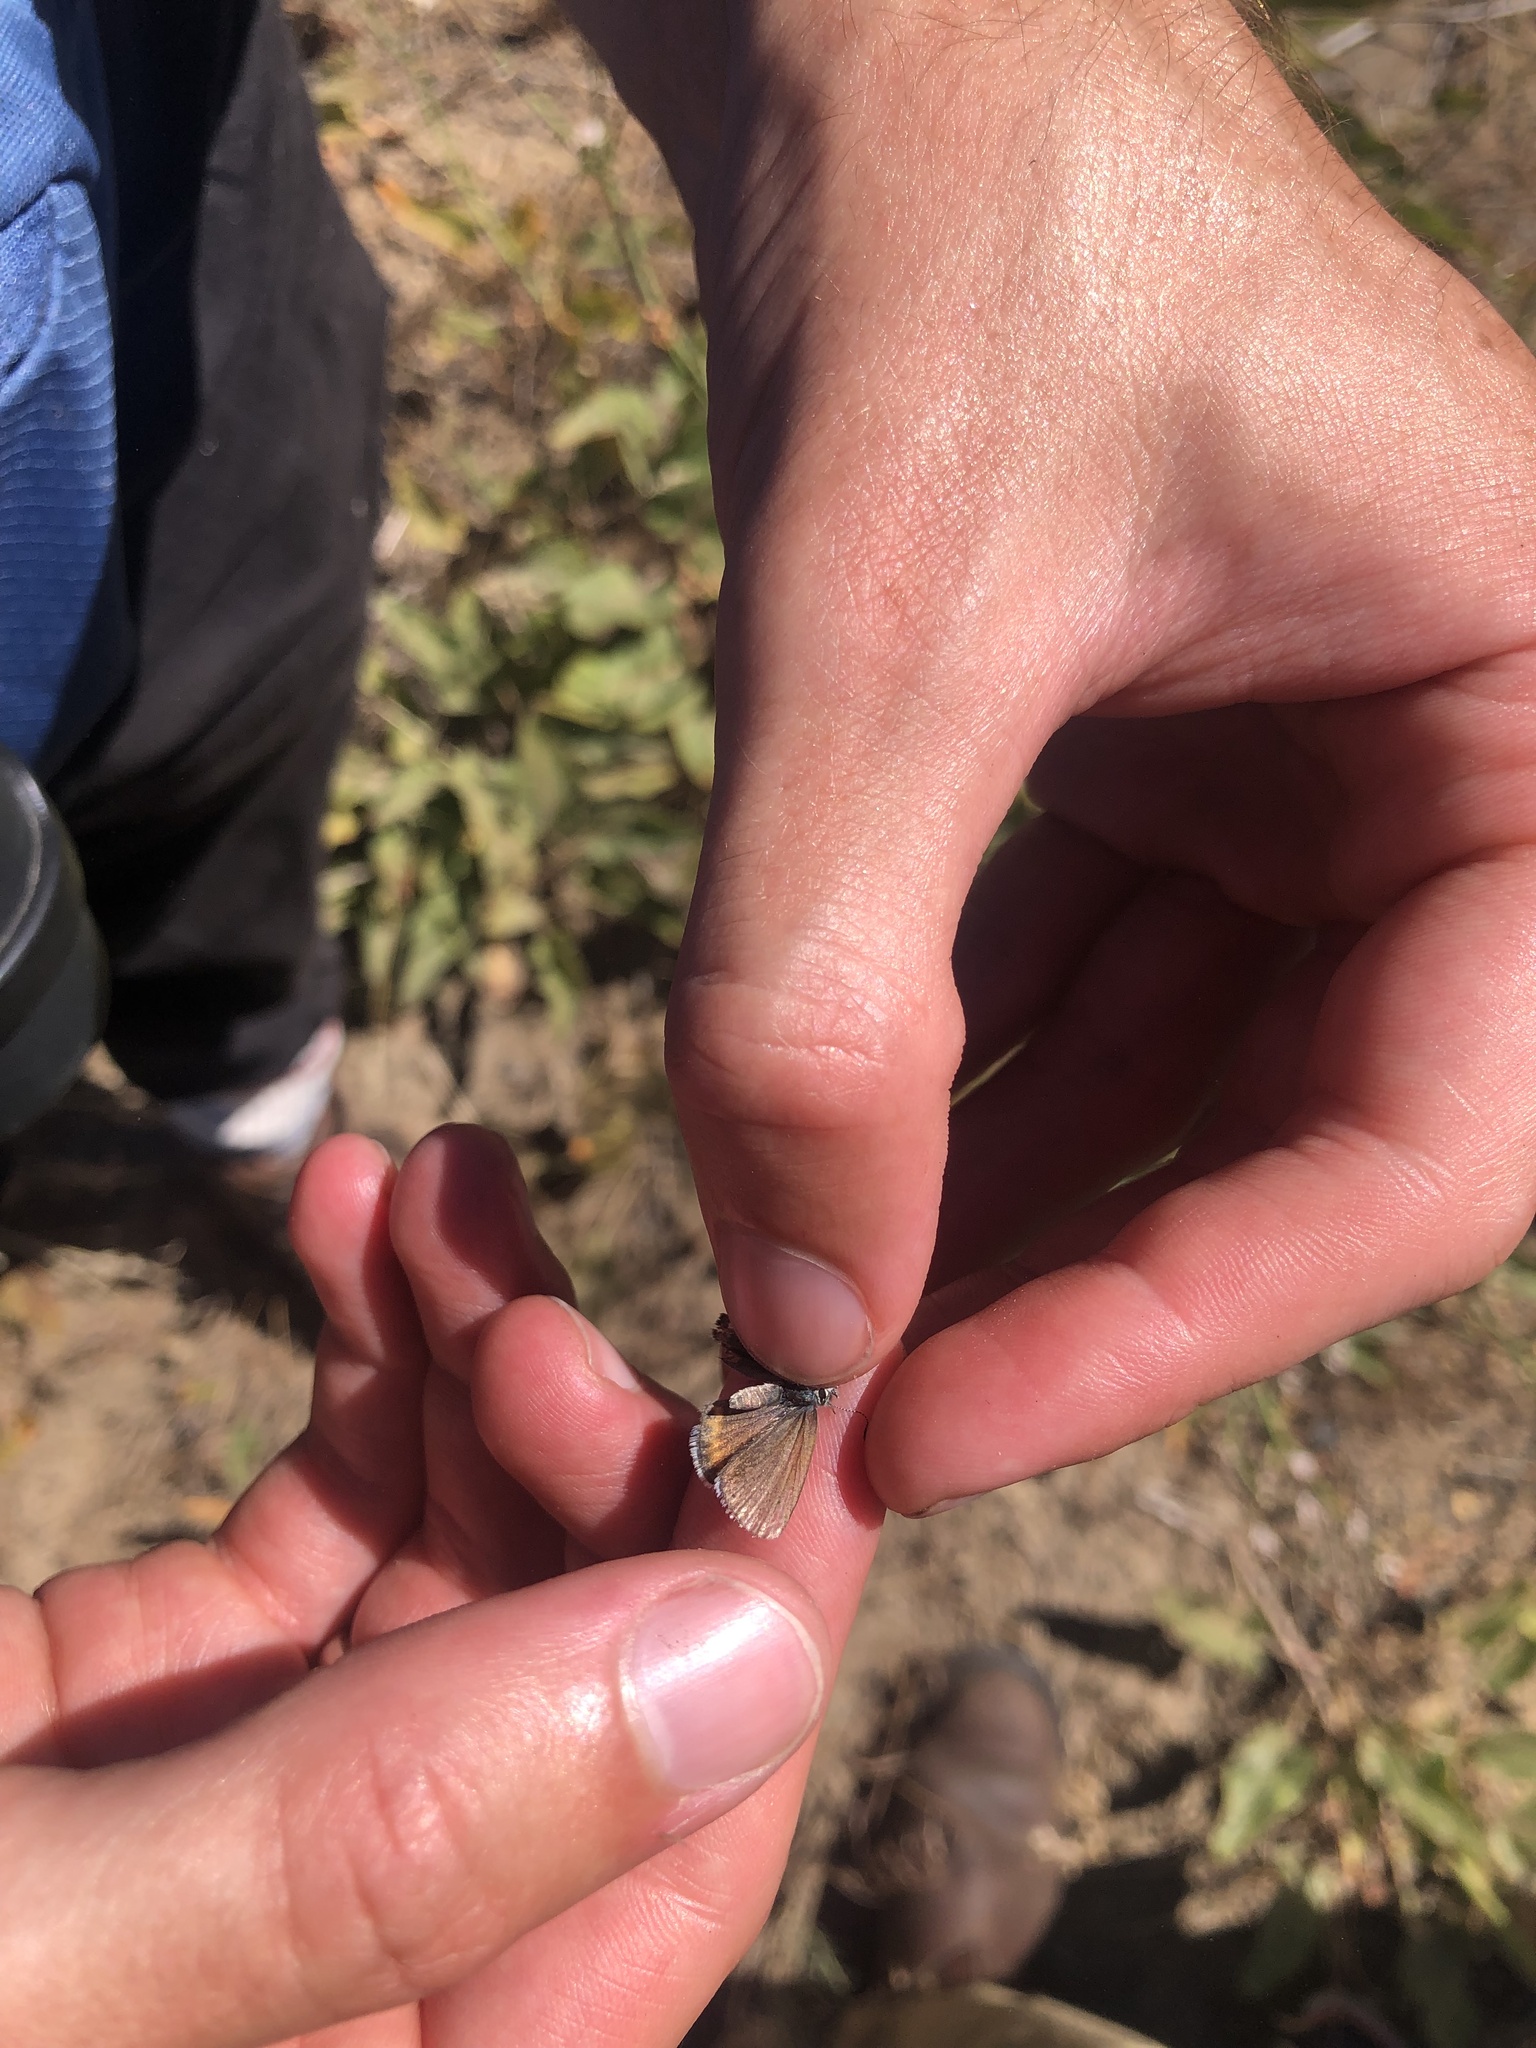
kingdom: Animalia
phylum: Arthropoda
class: Insecta
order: Lepidoptera
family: Lycaenidae
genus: Euphilotes
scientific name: Euphilotes enoptes
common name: Dotted blue
